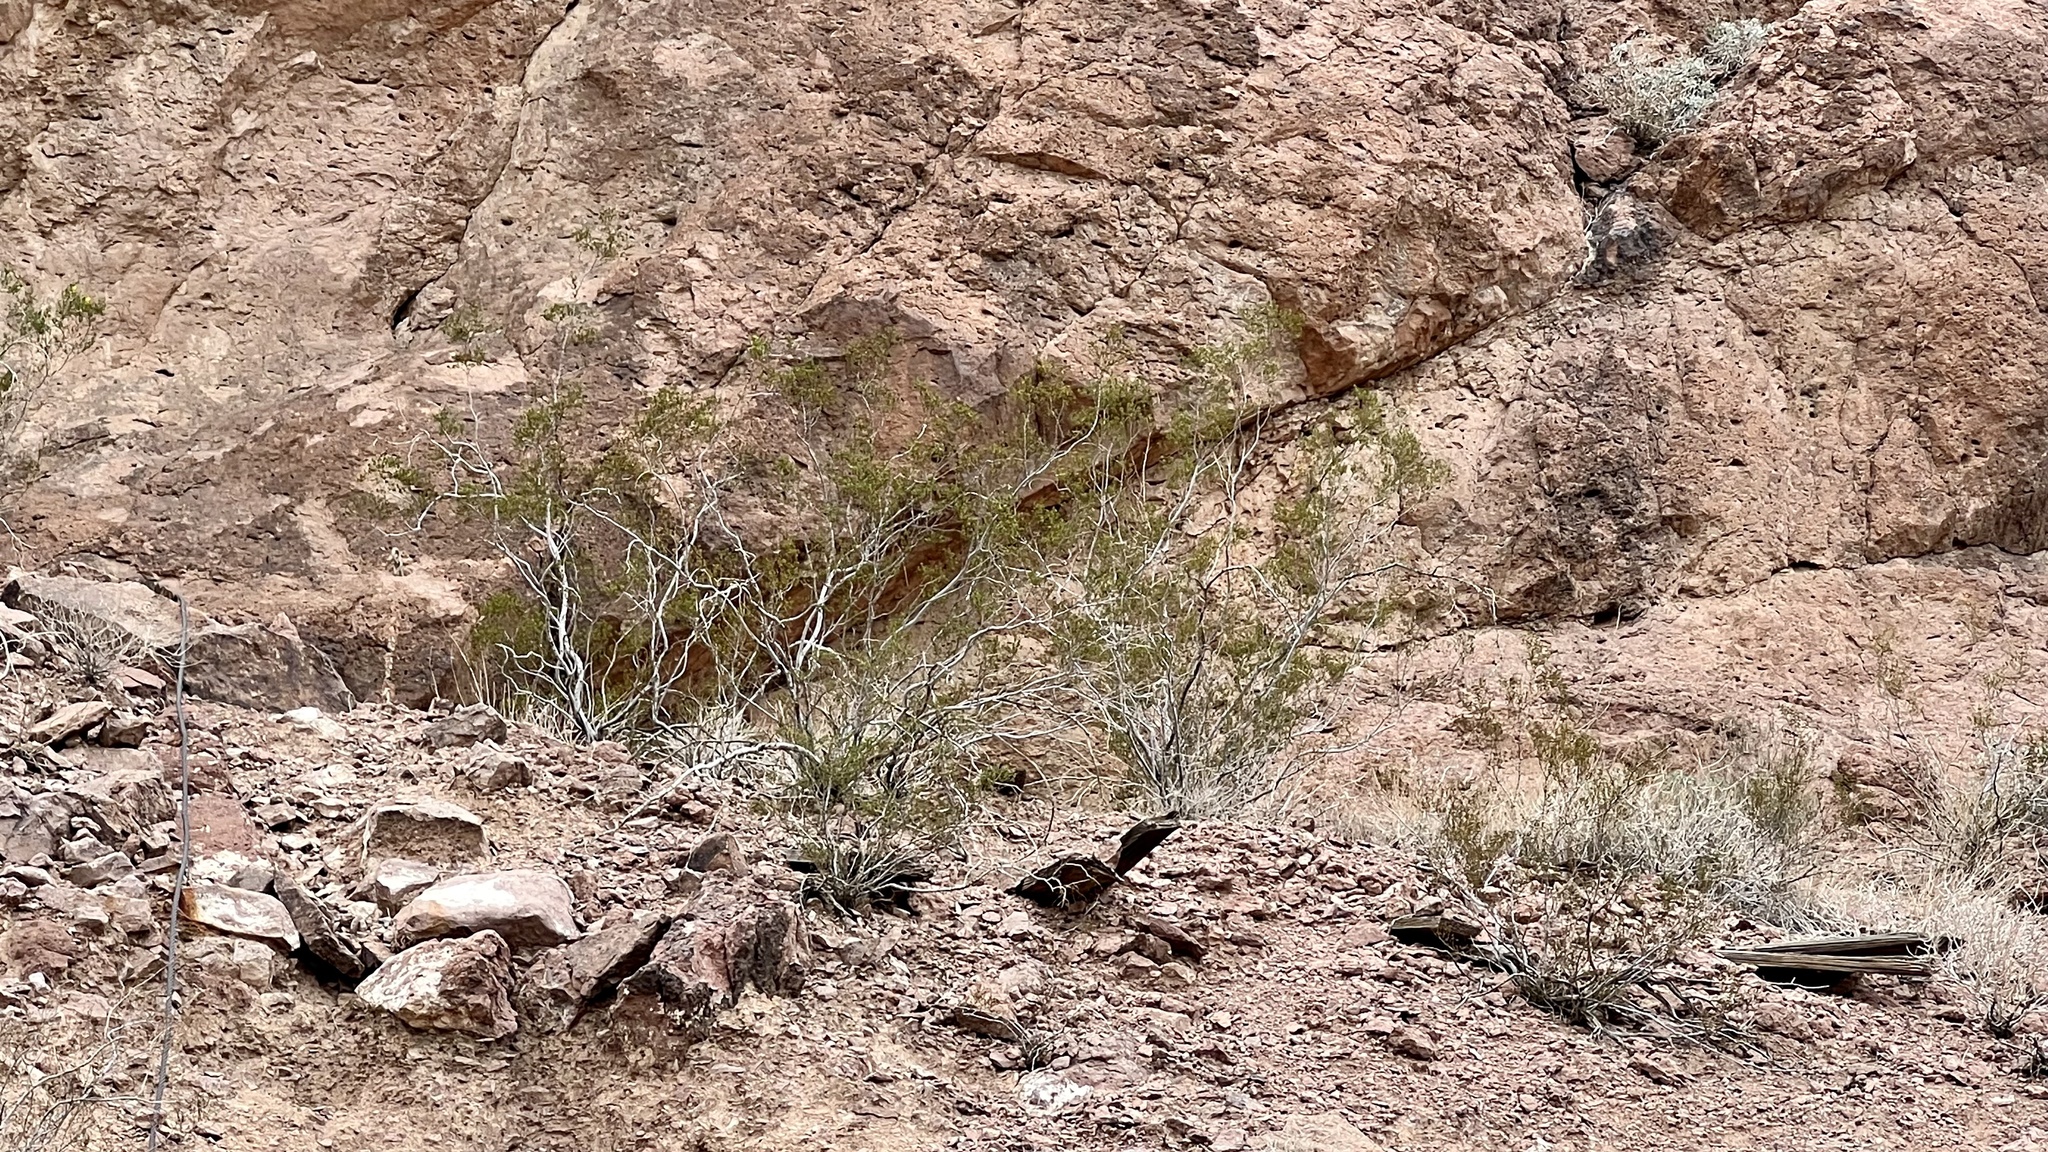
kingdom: Plantae
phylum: Tracheophyta
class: Magnoliopsida
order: Zygophyllales
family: Zygophyllaceae
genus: Larrea
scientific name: Larrea tridentata
